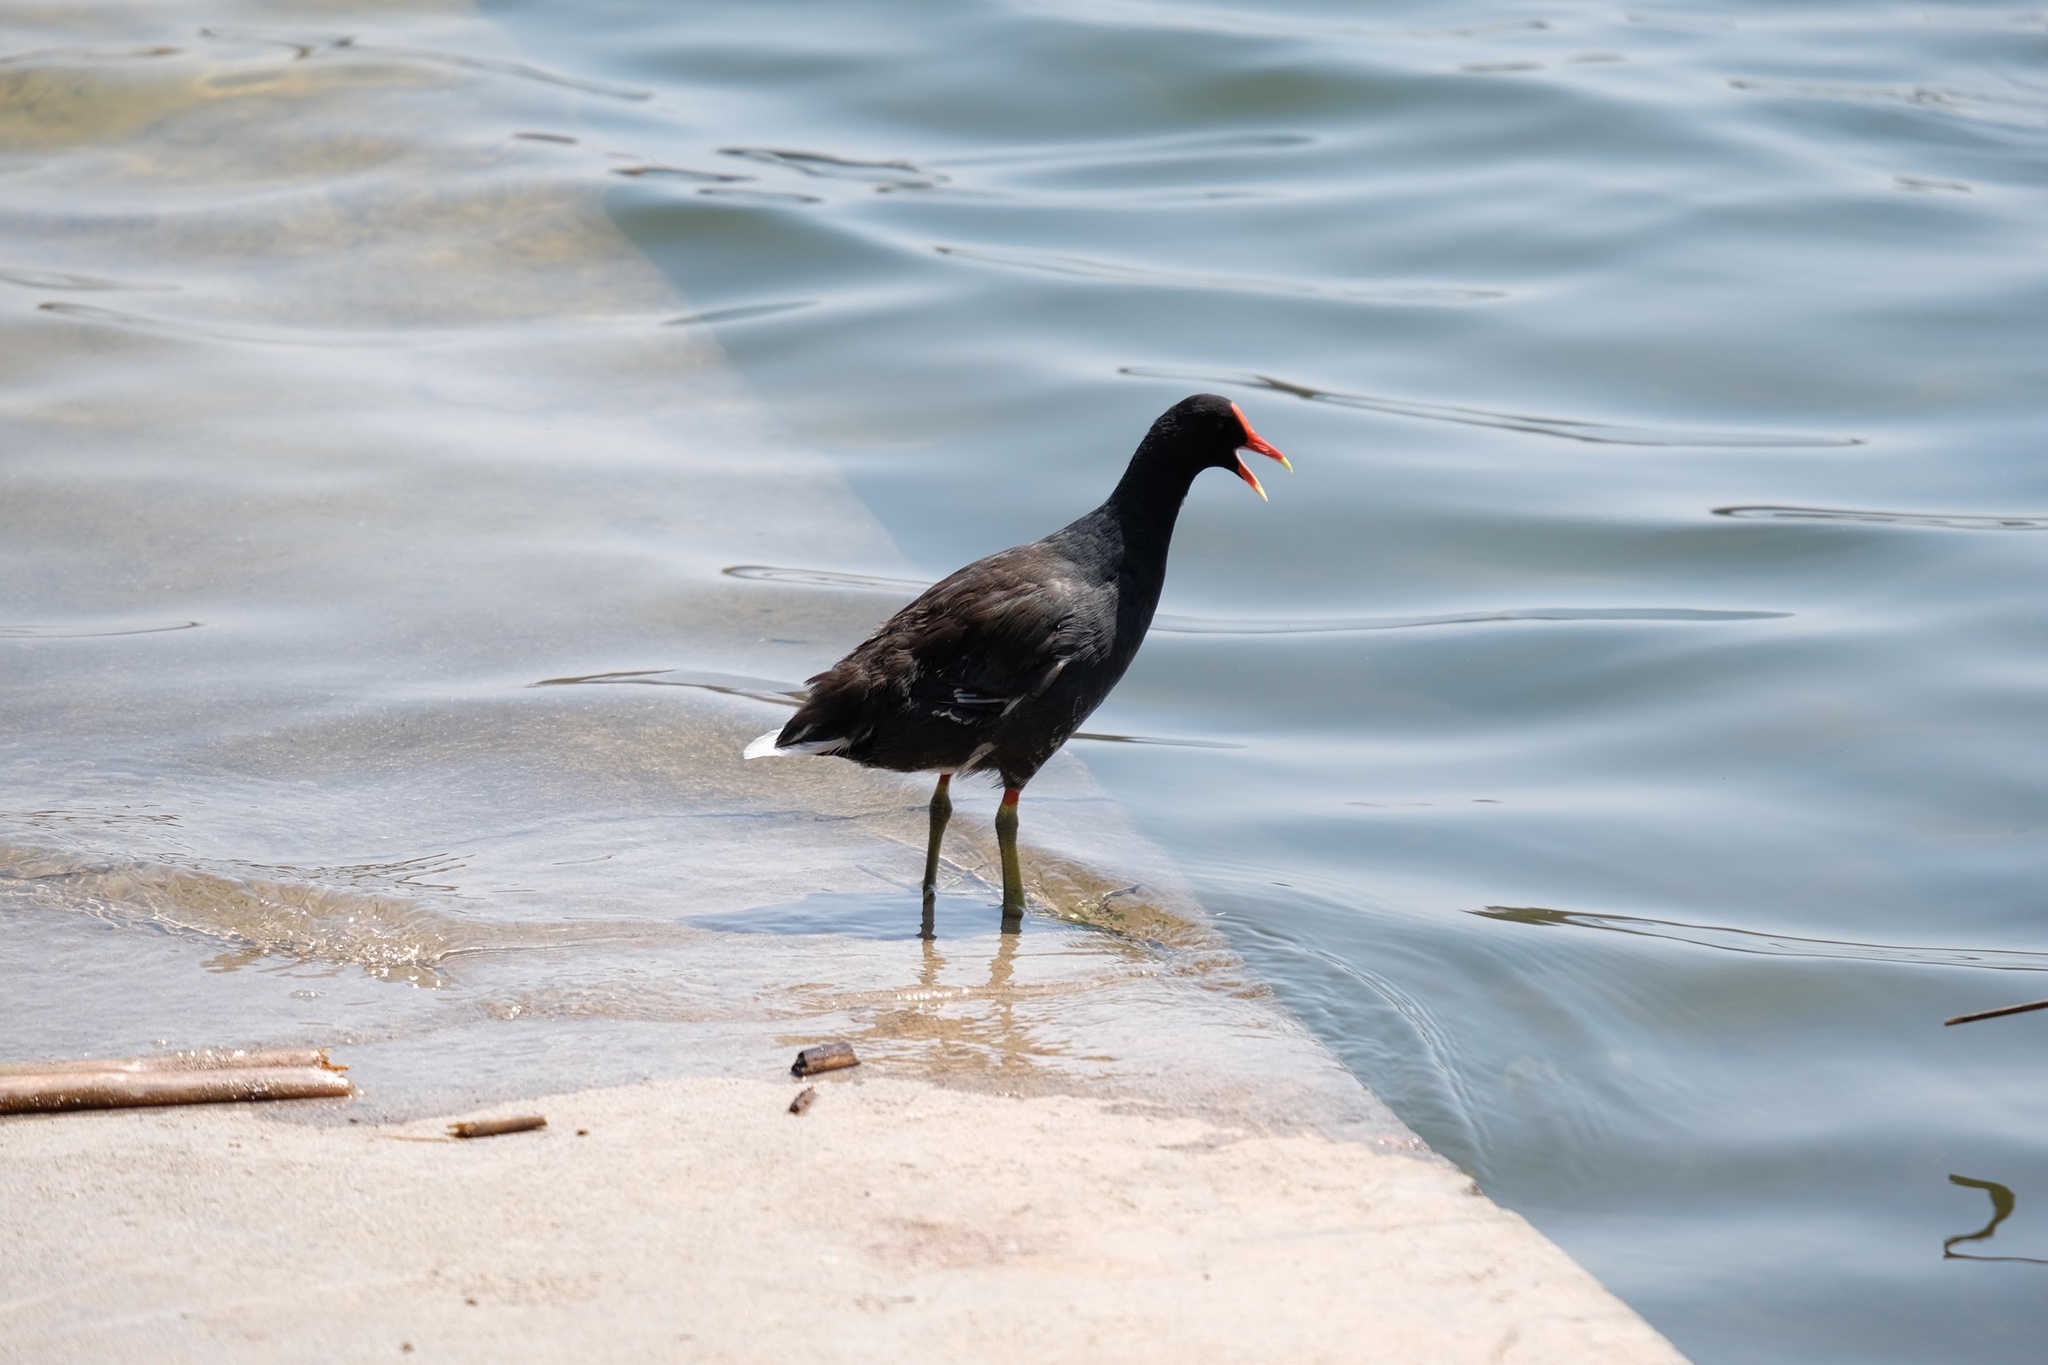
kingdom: Animalia
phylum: Chordata
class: Aves
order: Gruiformes
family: Rallidae
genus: Gallinula
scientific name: Gallinula chloropus
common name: Common moorhen
